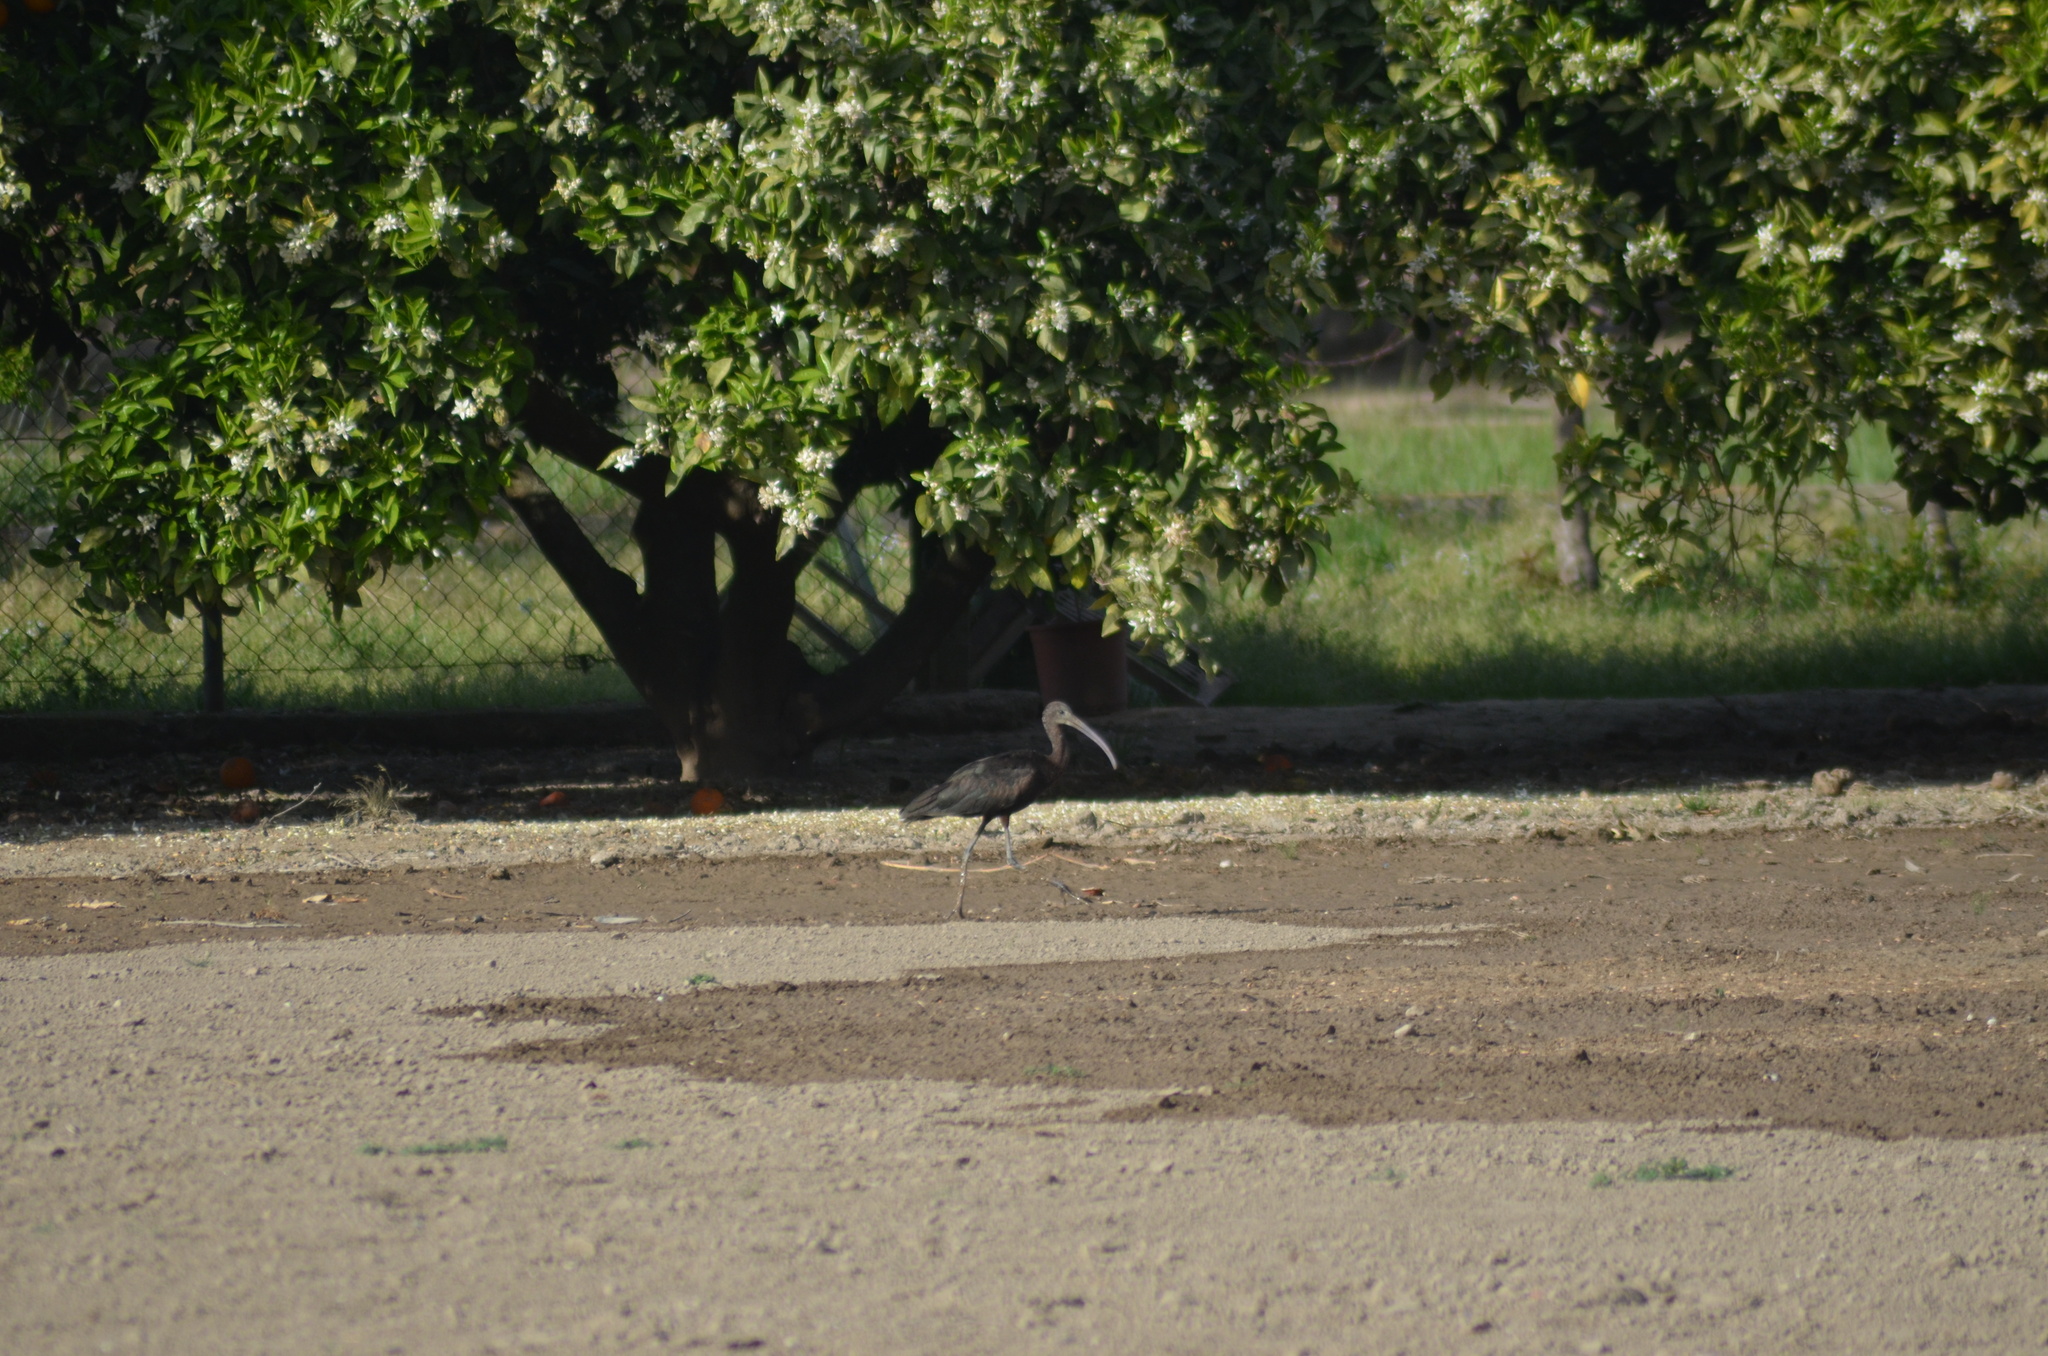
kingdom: Animalia
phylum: Chordata
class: Aves
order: Pelecaniformes
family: Threskiornithidae
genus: Plegadis
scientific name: Plegadis falcinellus
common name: Glossy ibis
